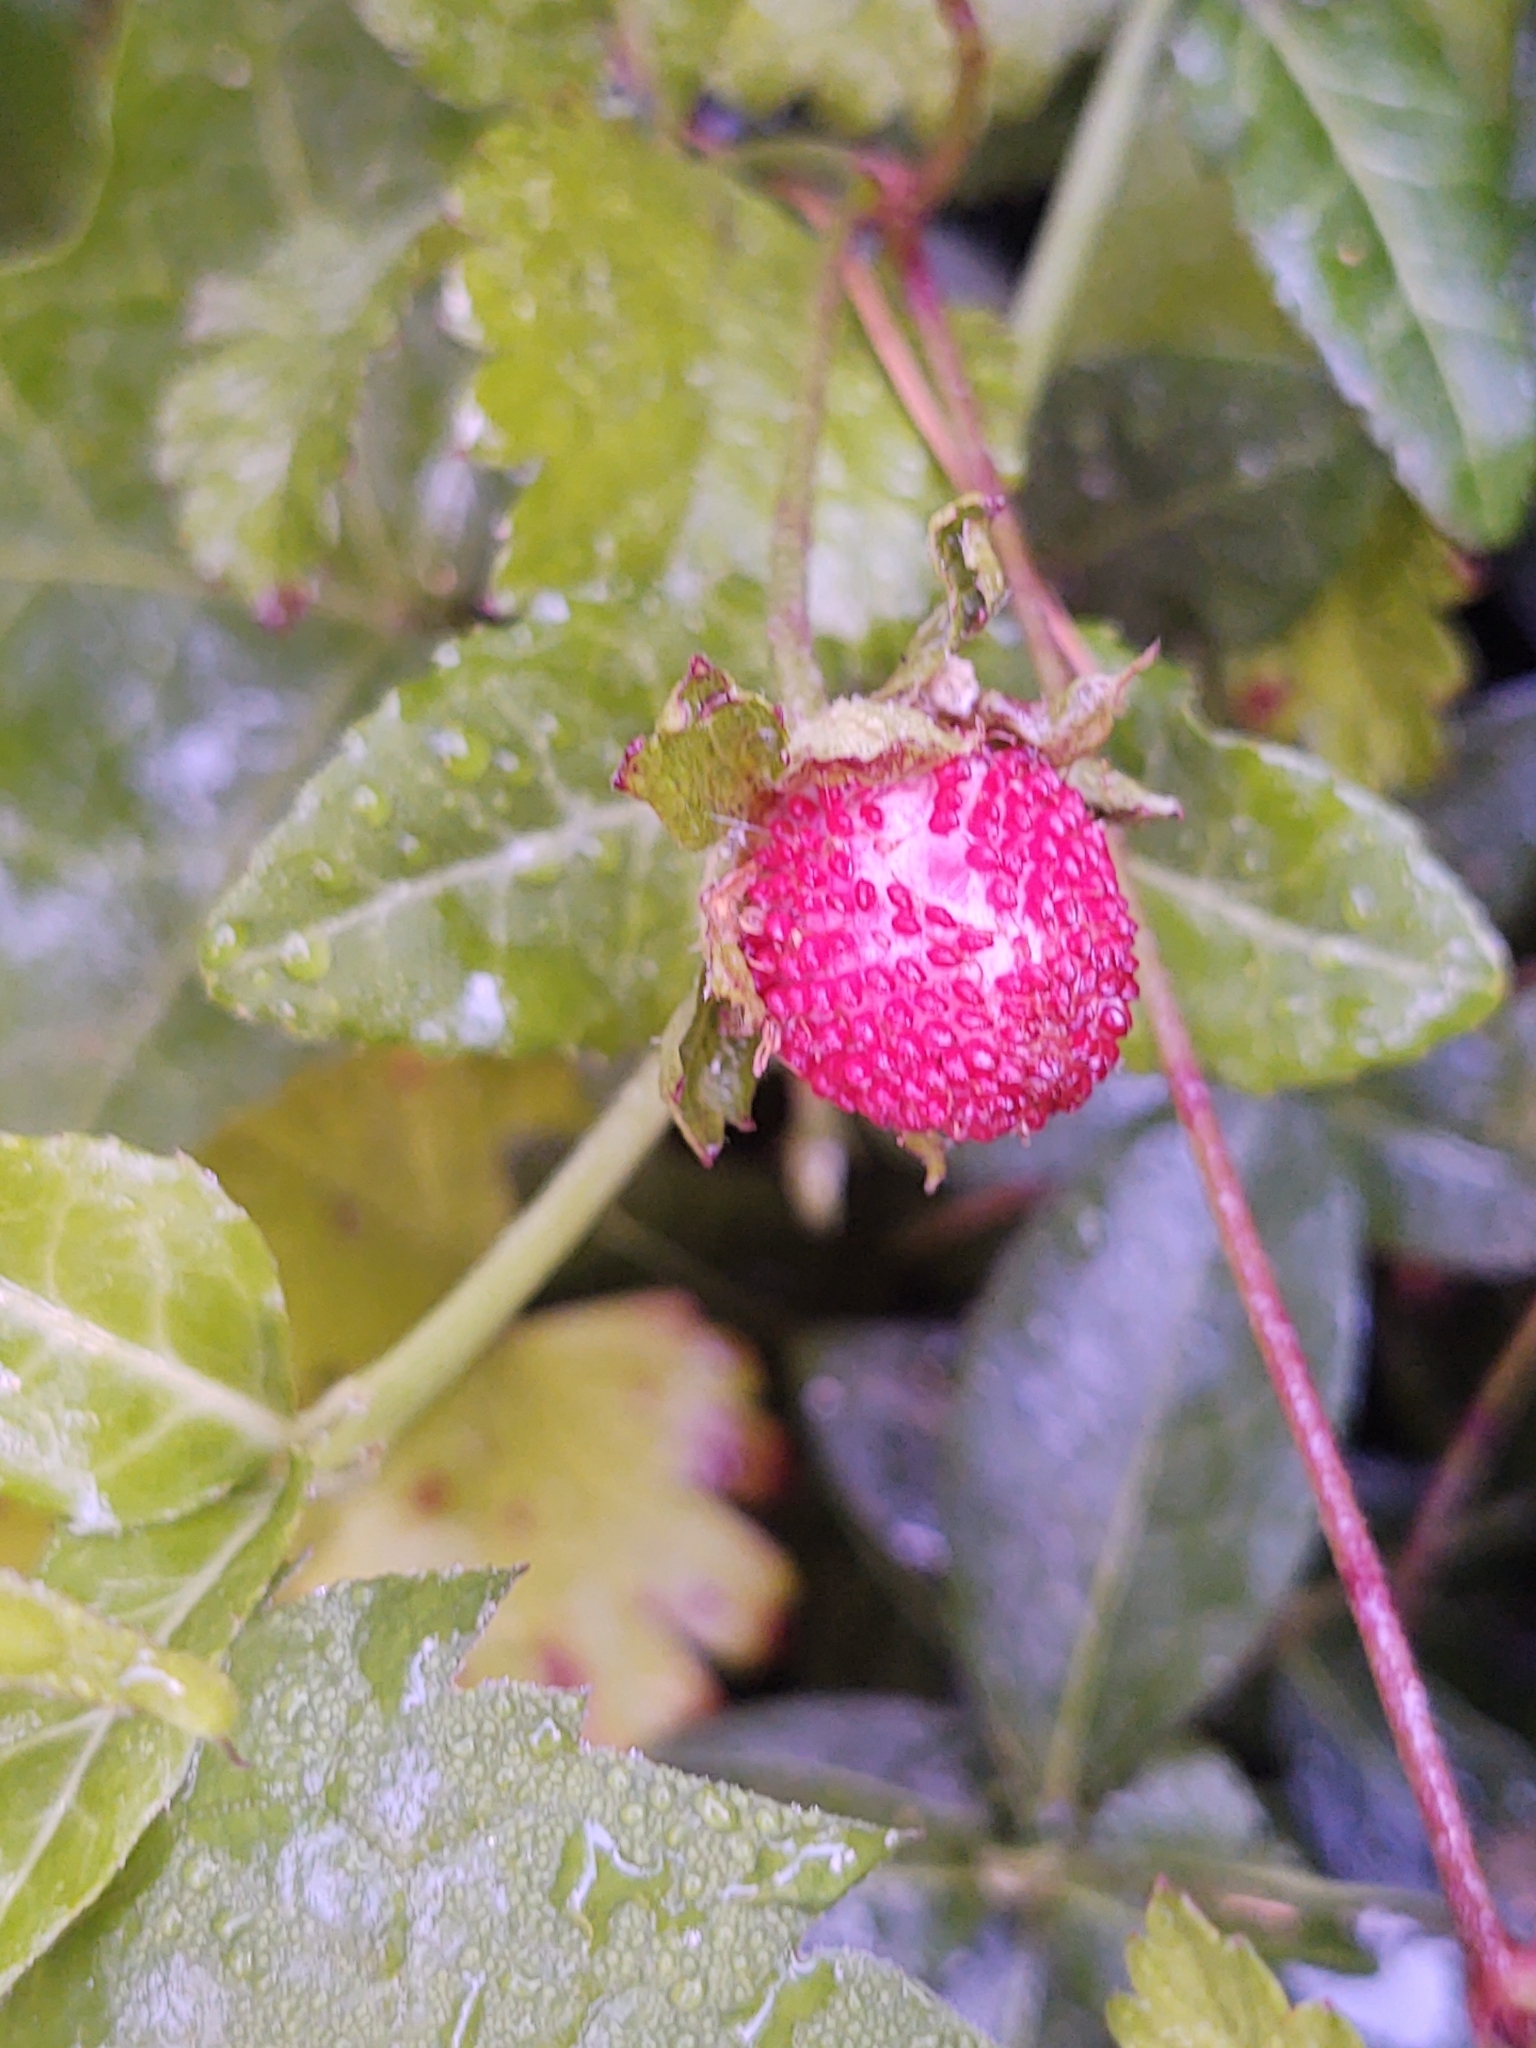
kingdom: Plantae
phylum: Tracheophyta
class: Magnoliopsida
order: Rosales
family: Rosaceae
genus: Potentilla
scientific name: Potentilla indica
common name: Yellow-flowered strawberry
